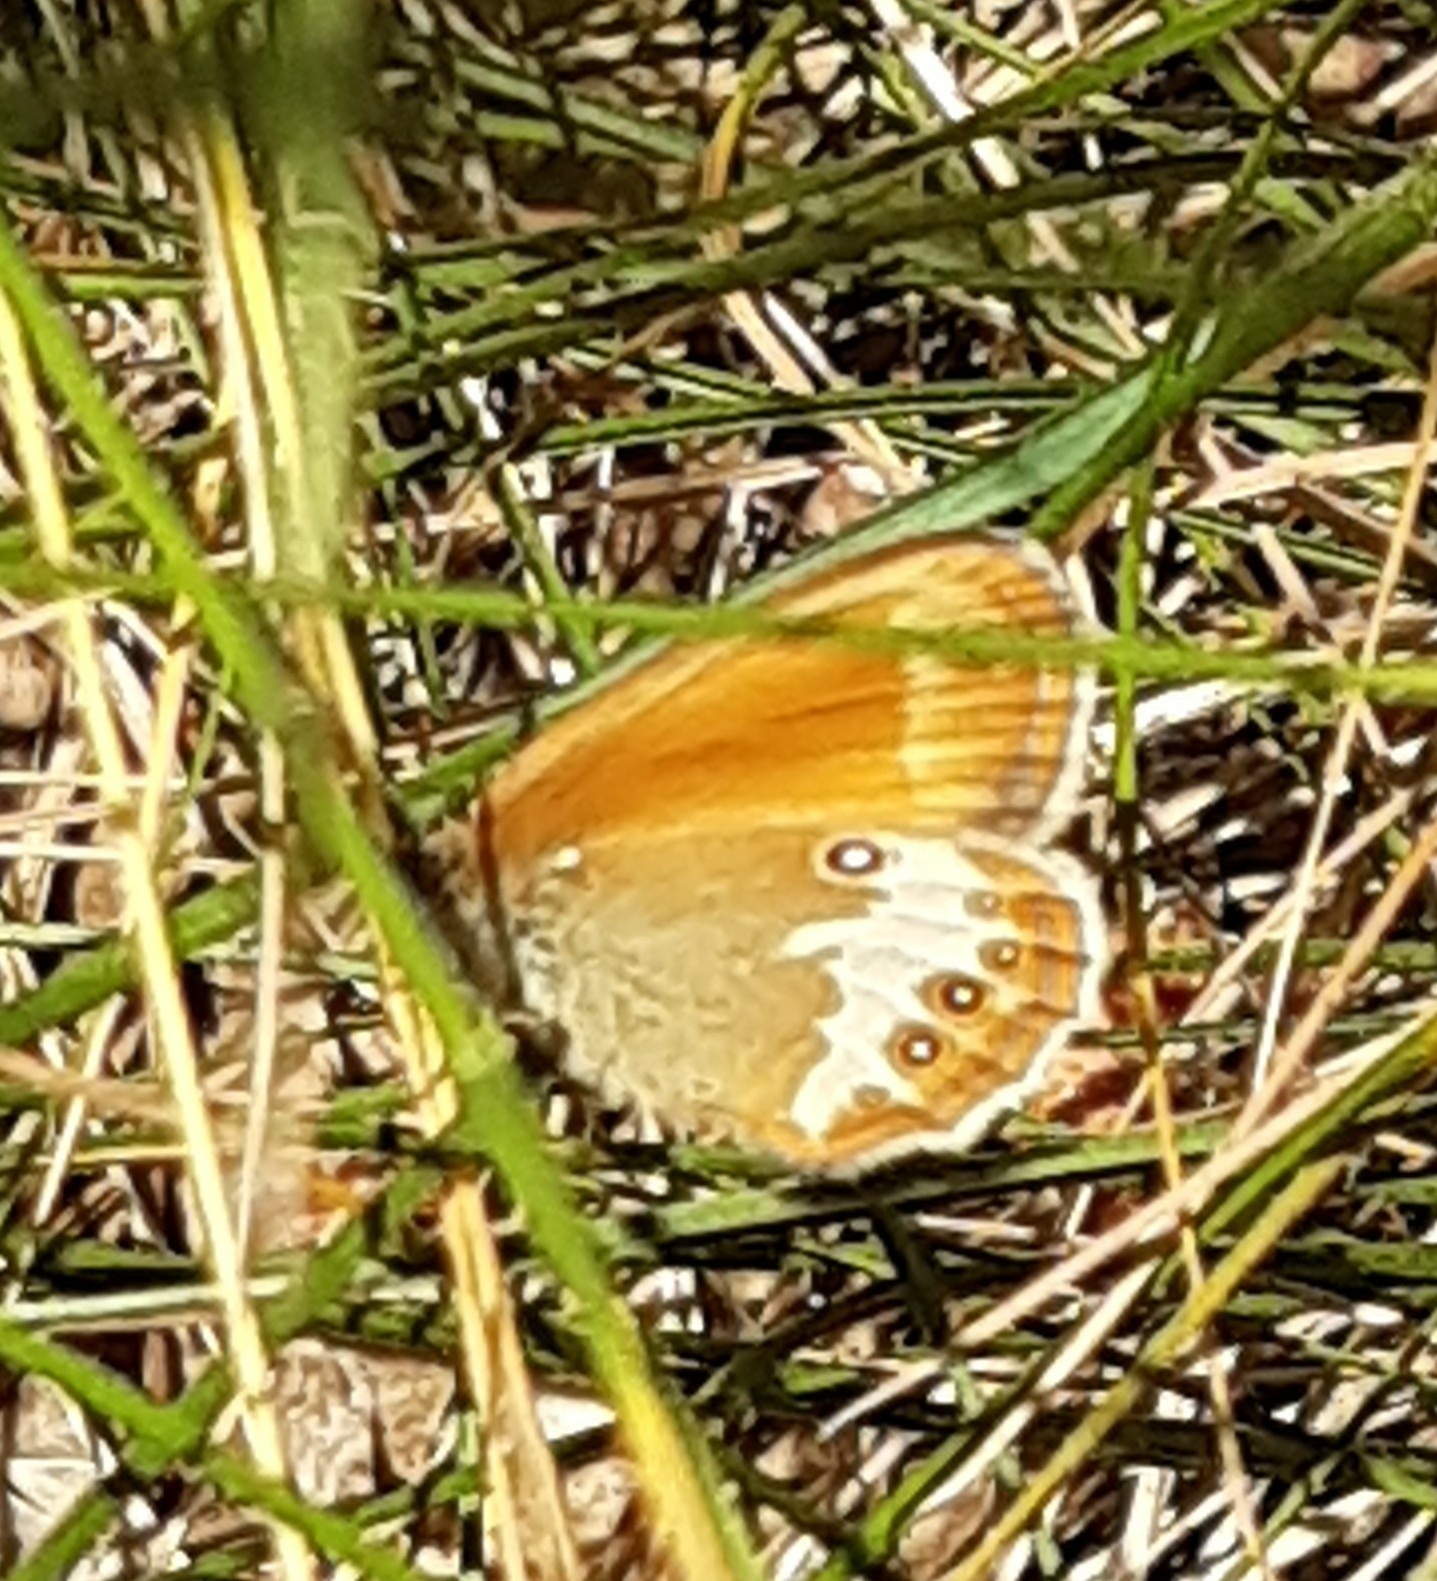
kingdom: Animalia
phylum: Arthropoda
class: Insecta
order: Lepidoptera
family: Nymphalidae
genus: Coenonympha
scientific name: Coenonympha arcania
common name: Pearly heath
